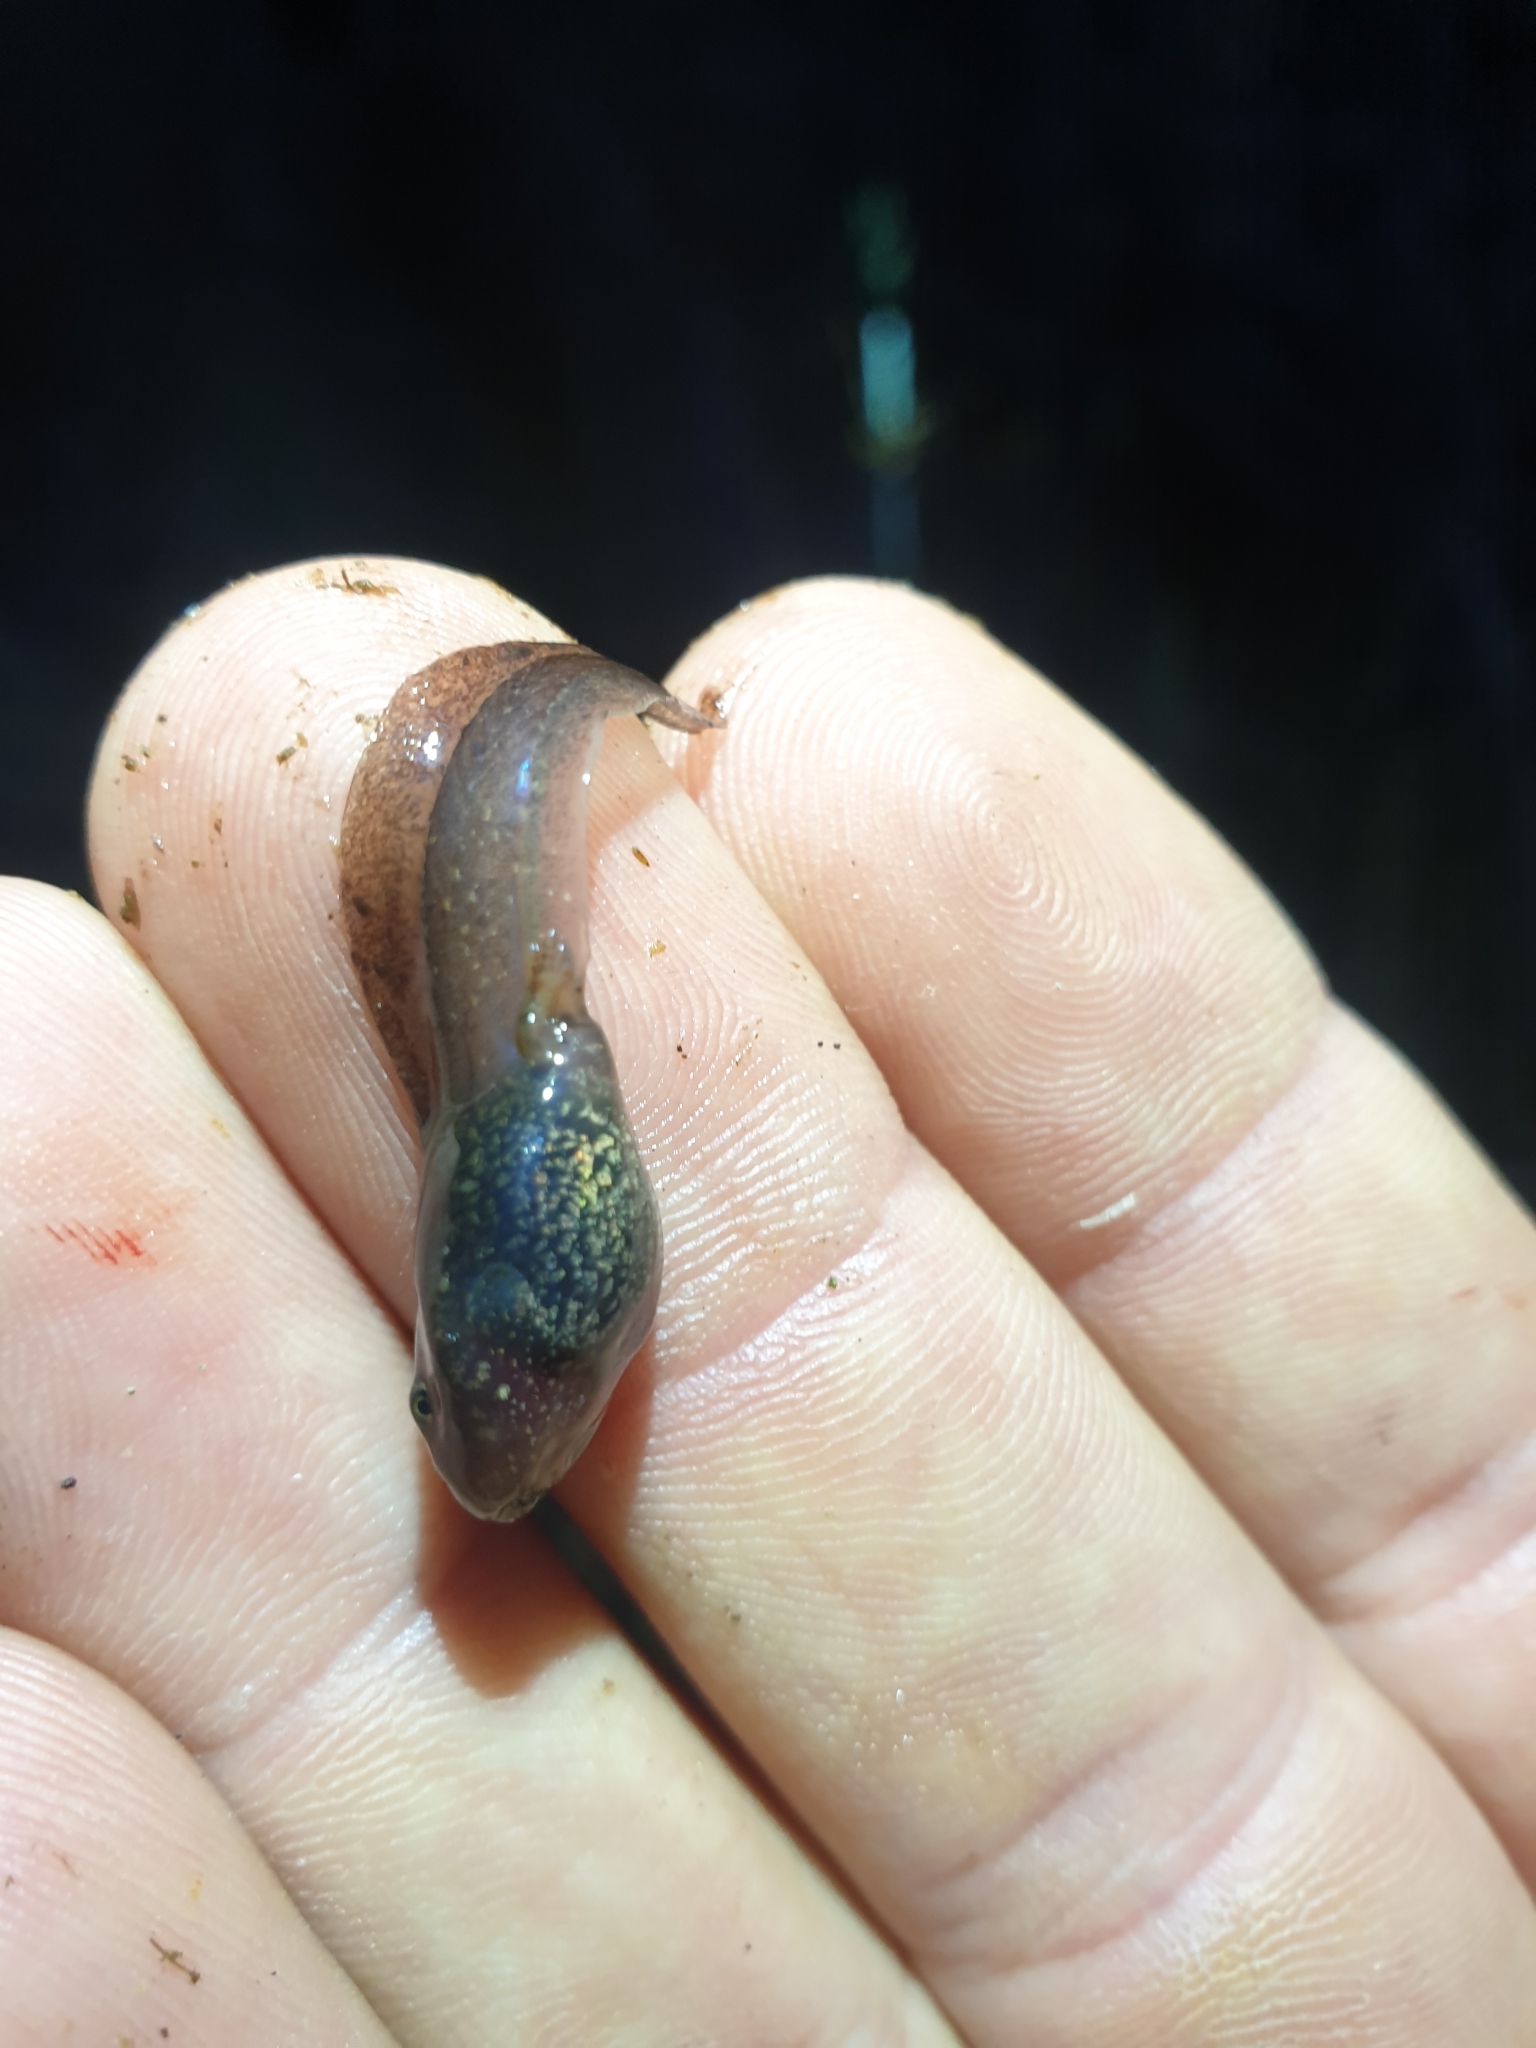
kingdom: Animalia
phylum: Chordata
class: Amphibia
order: Anura
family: Ranidae
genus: Rana
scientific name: Rana temporaria
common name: Common frog
